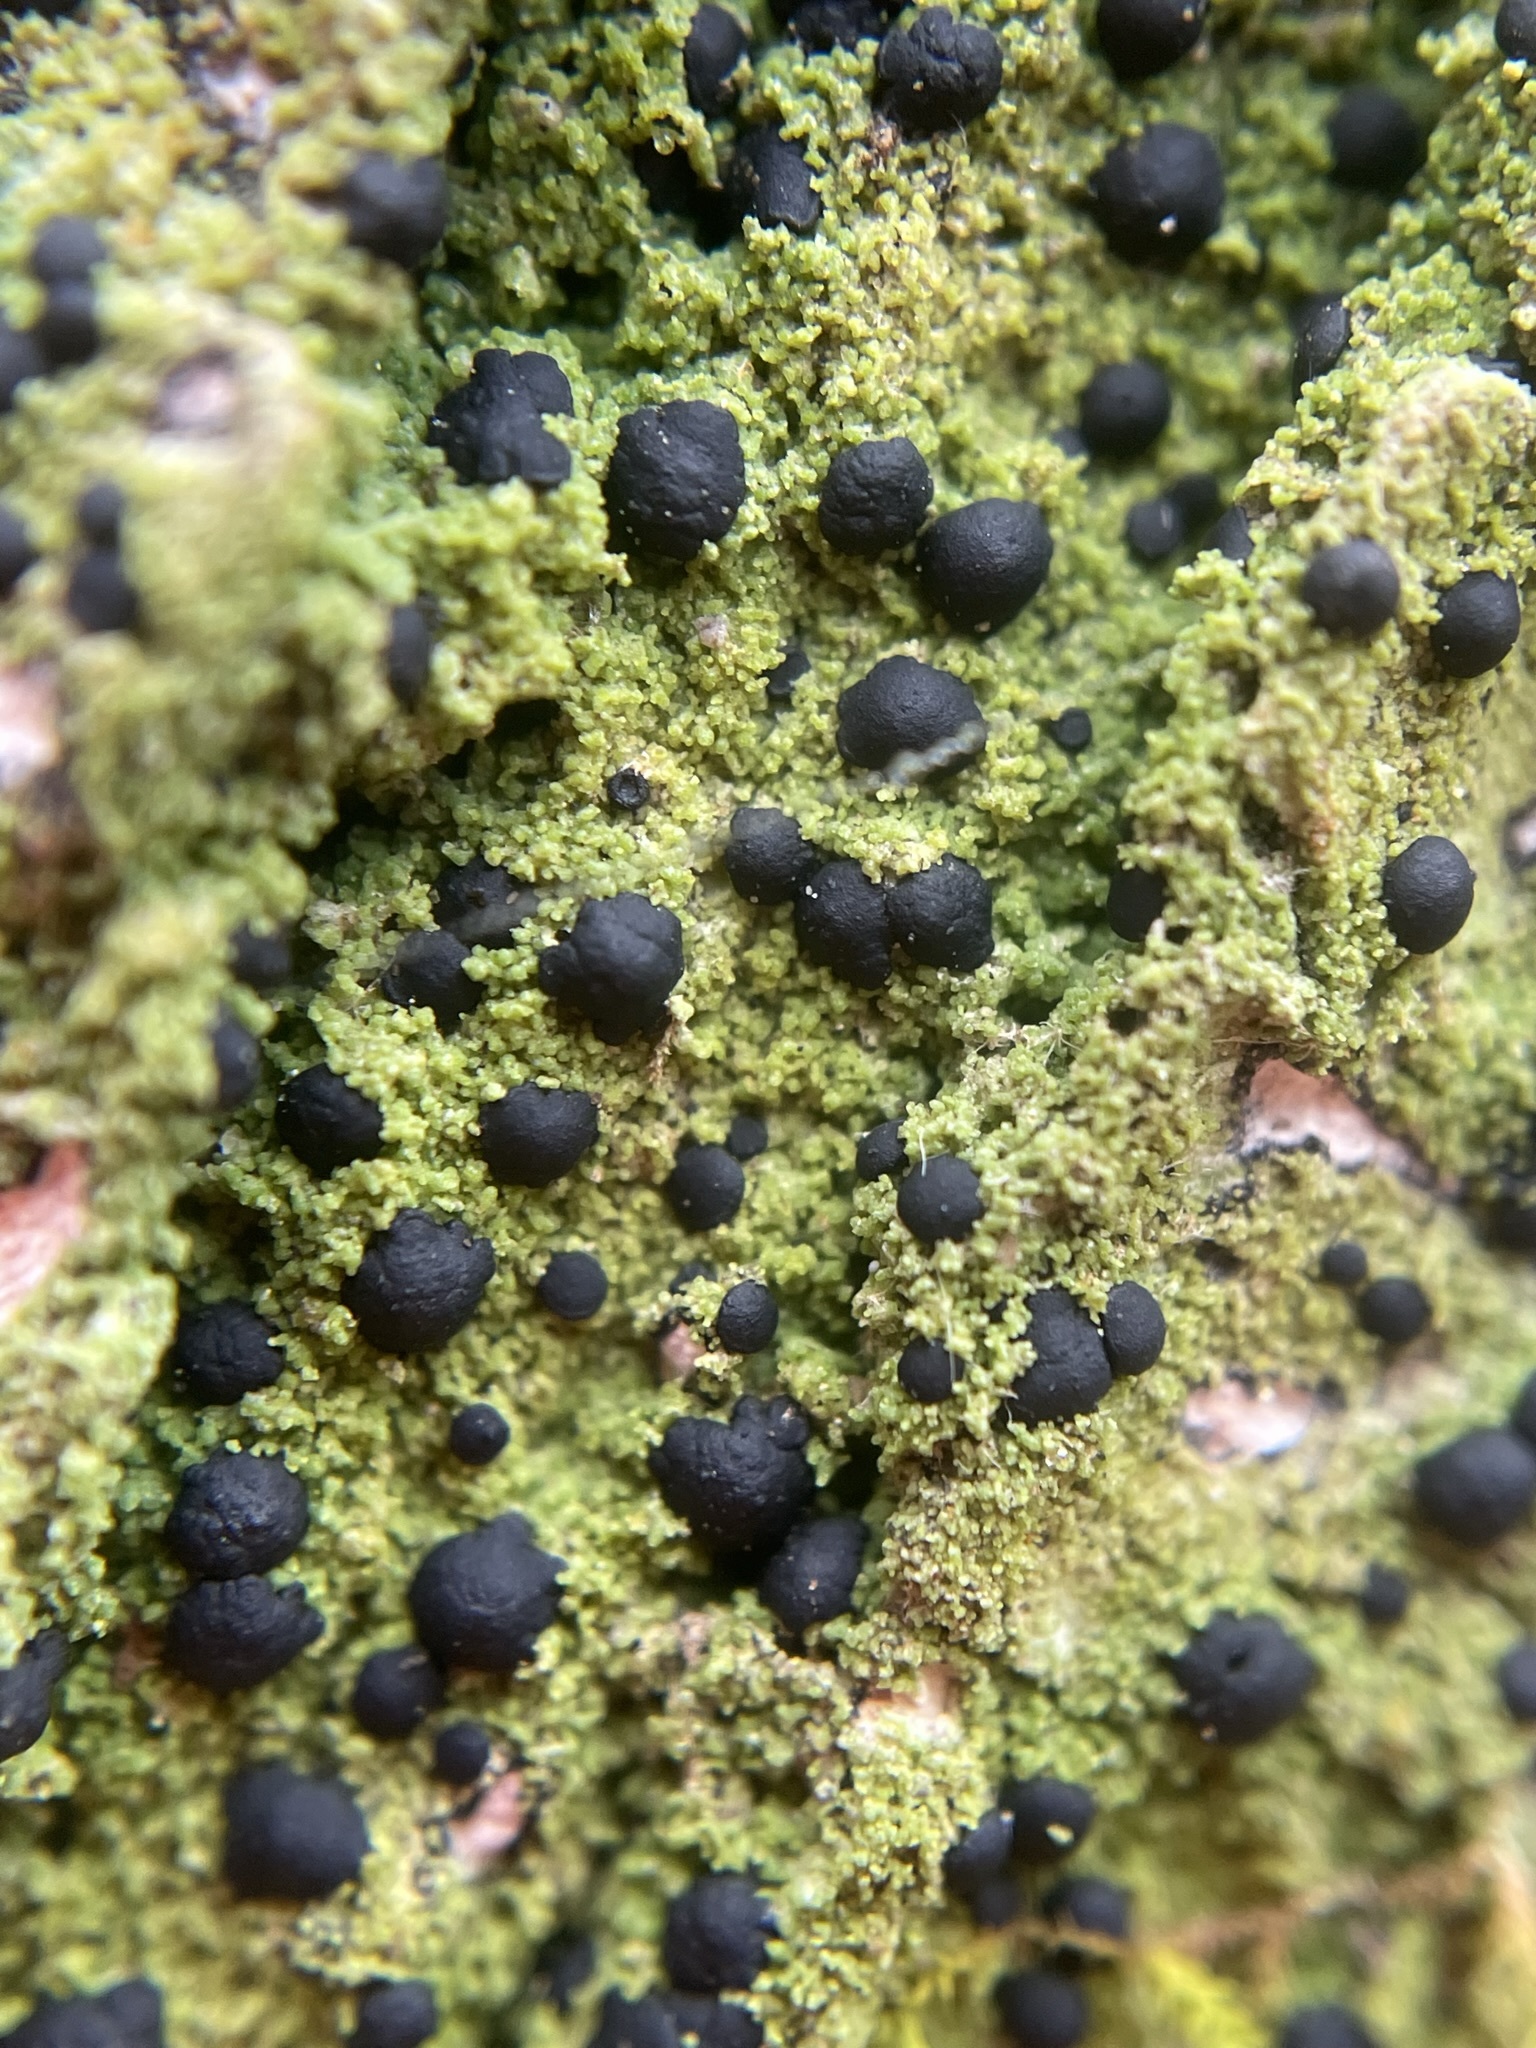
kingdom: Fungi
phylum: Ascomycota
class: Lecanoromycetes
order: Lecanorales
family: Ramalinaceae
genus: Bacidia
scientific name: Bacidia schweinitzii
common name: Surprise lichen
